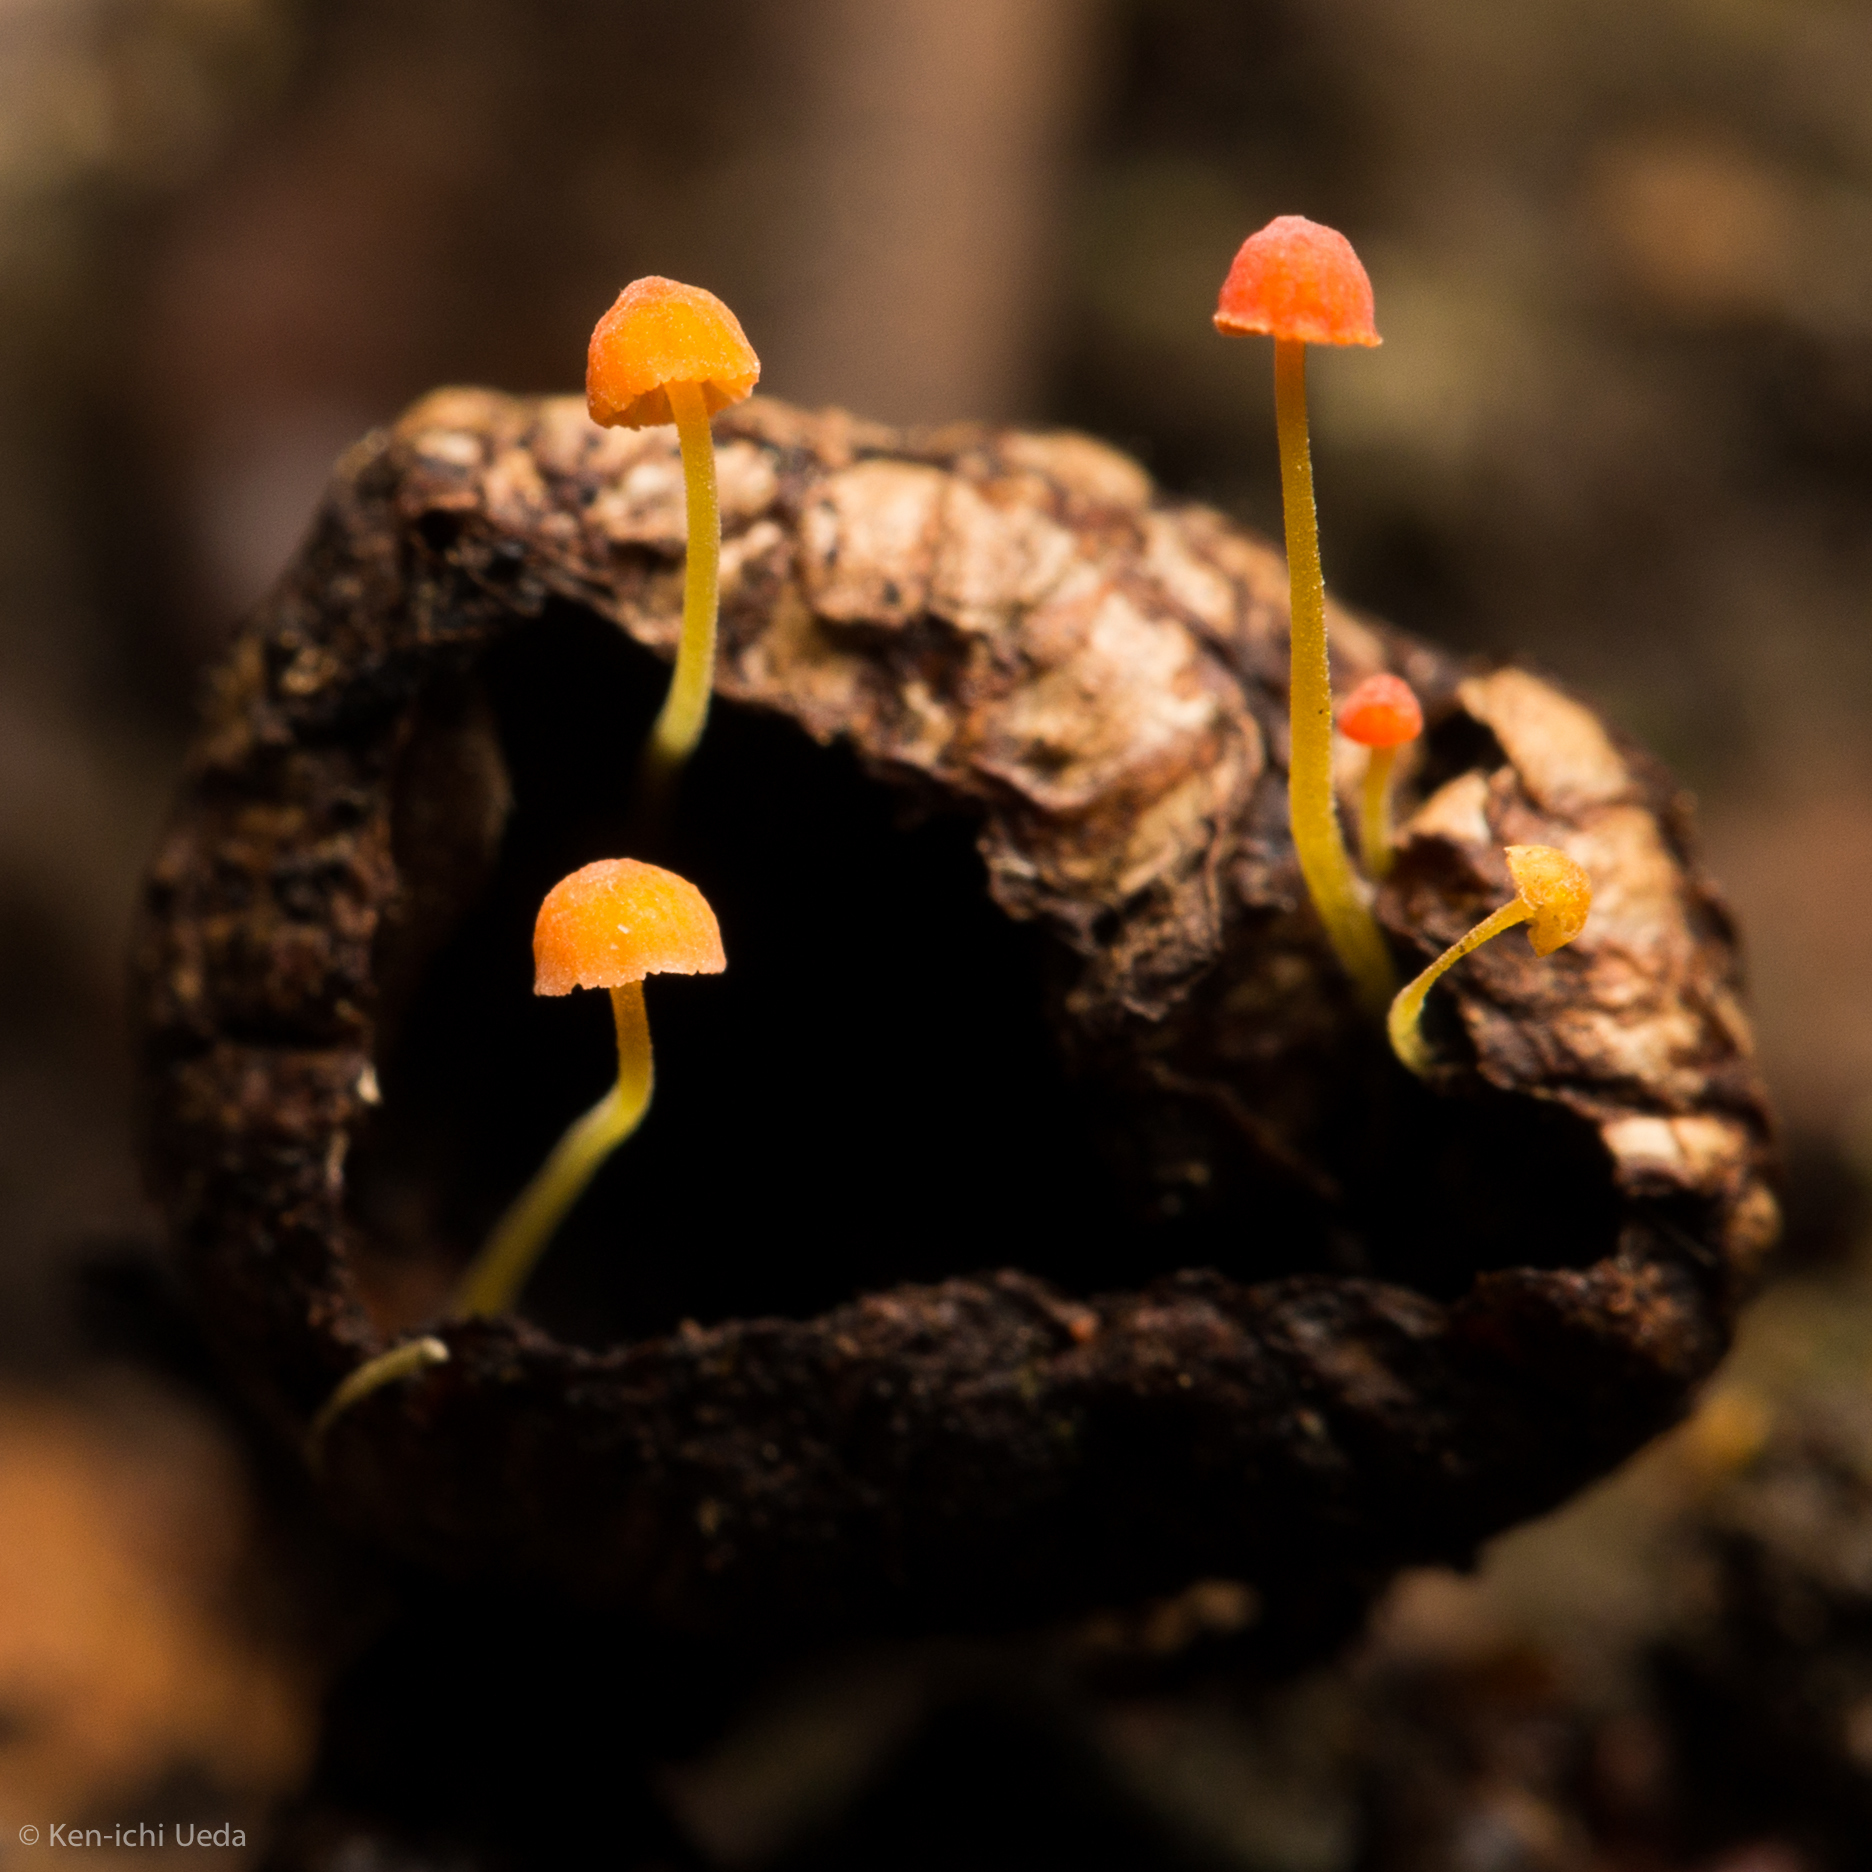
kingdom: Fungi
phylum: Basidiomycota
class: Agaricomycetes
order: Agaricales
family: Mycenaceae
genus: Mycena
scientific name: Mycena acicula
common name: Orange bonnet
